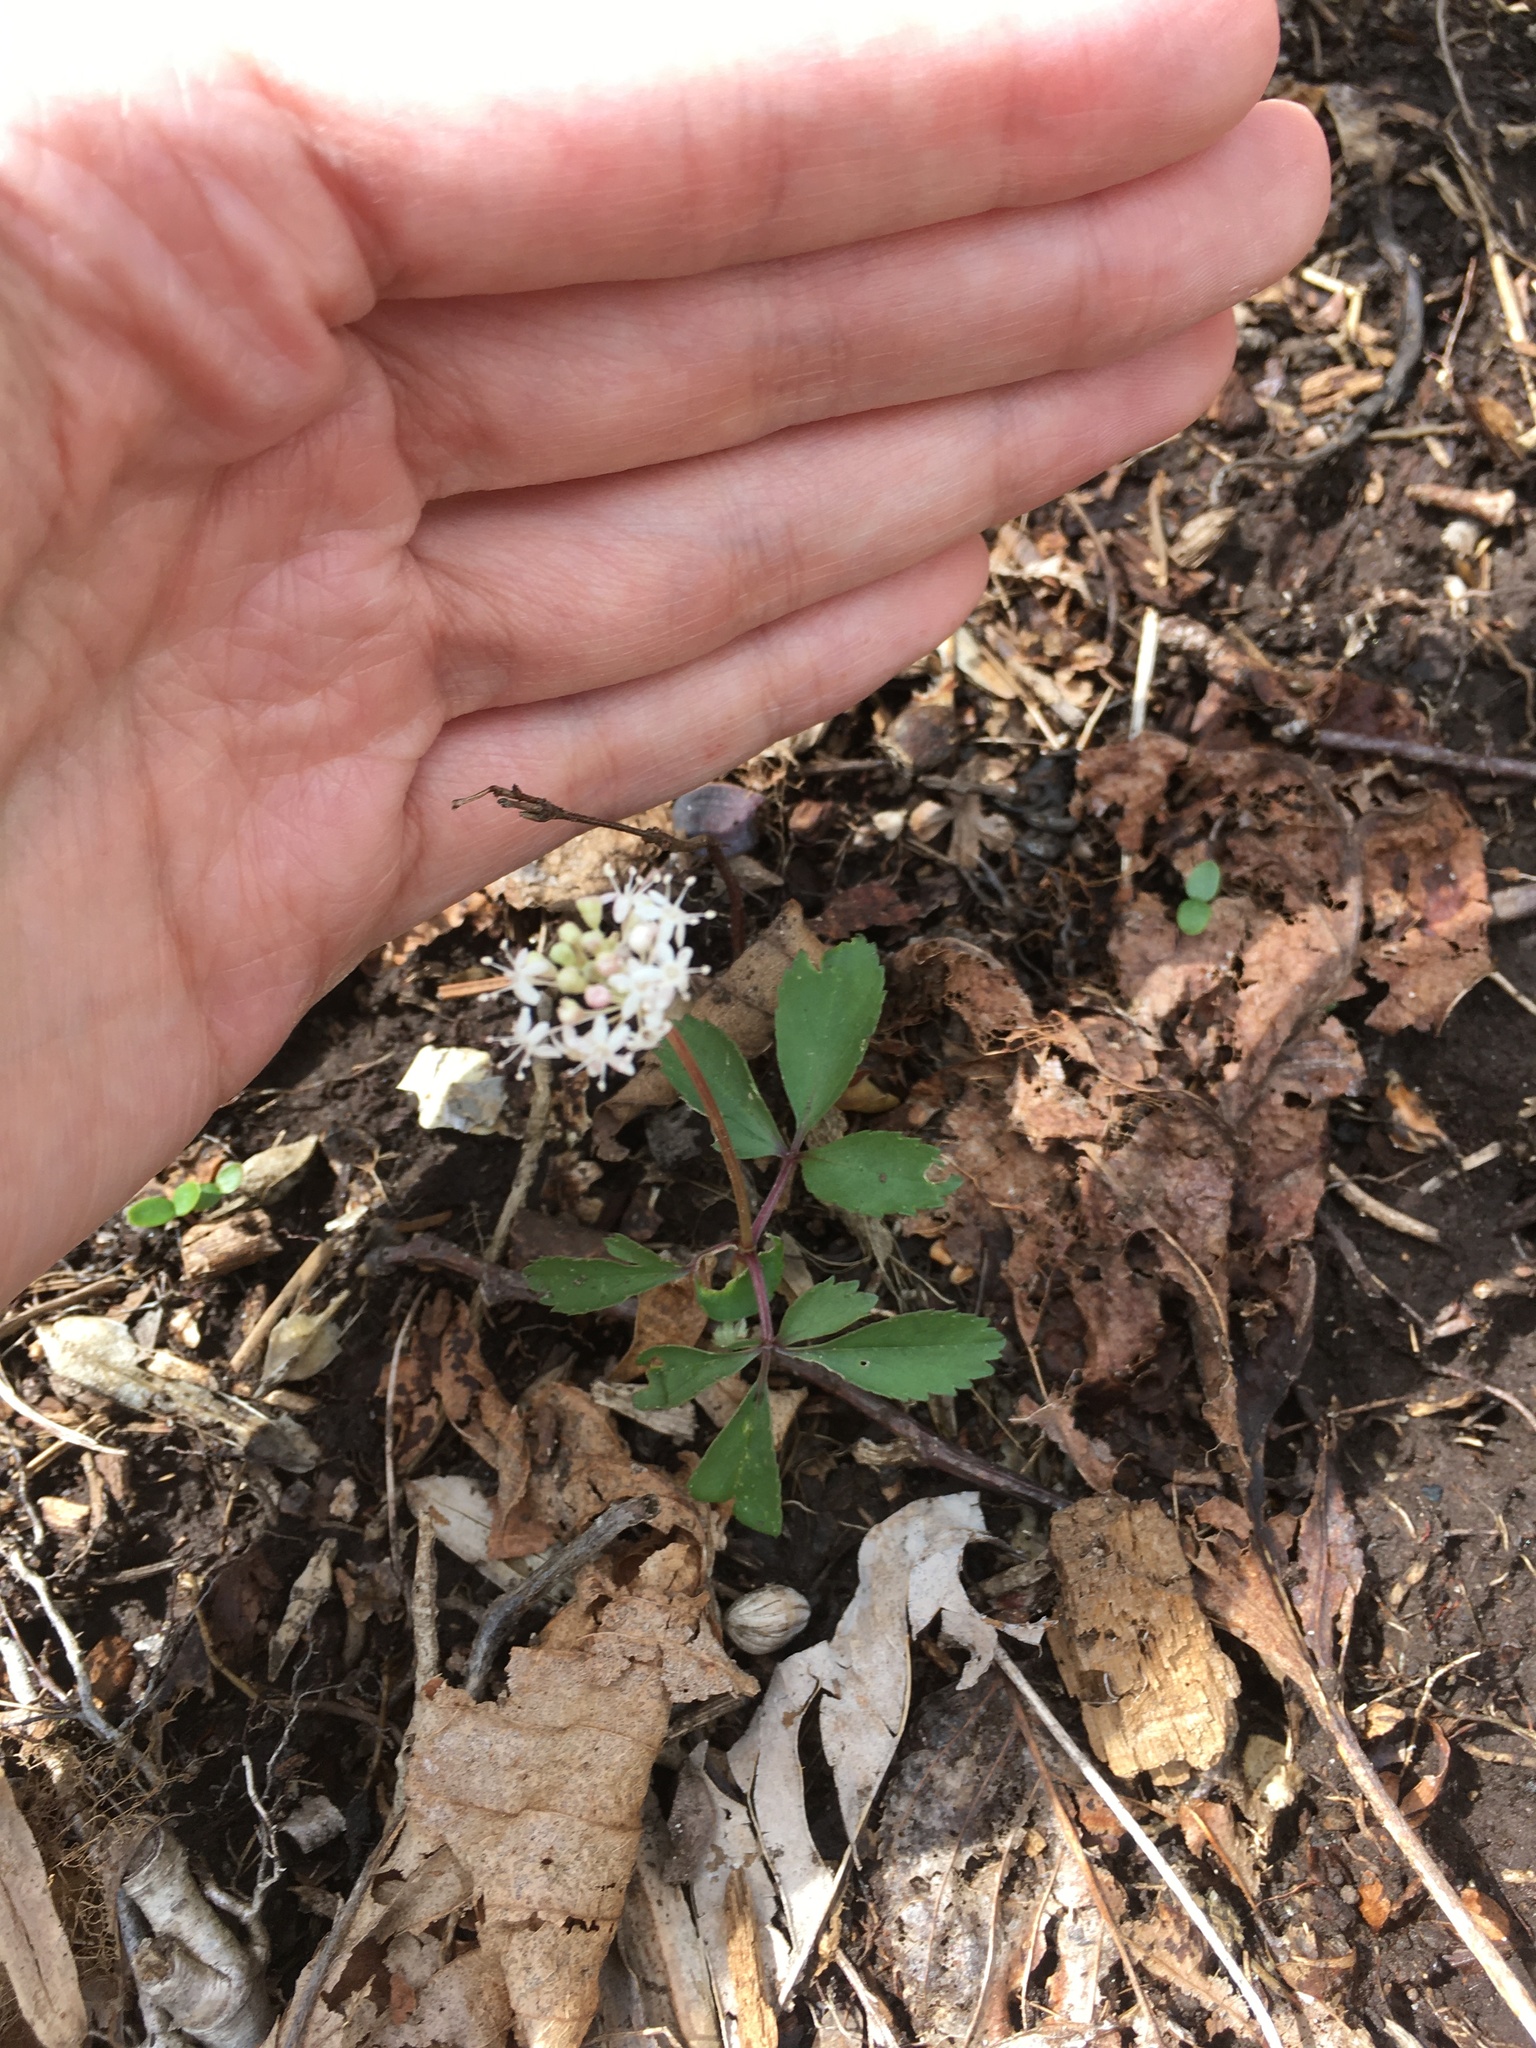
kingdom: Plantae
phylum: Tracheophyta
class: Magnoliopsida
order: Apiales
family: Araliaceae
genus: Panax
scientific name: Panax trifolius
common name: Dwarf ginseng
